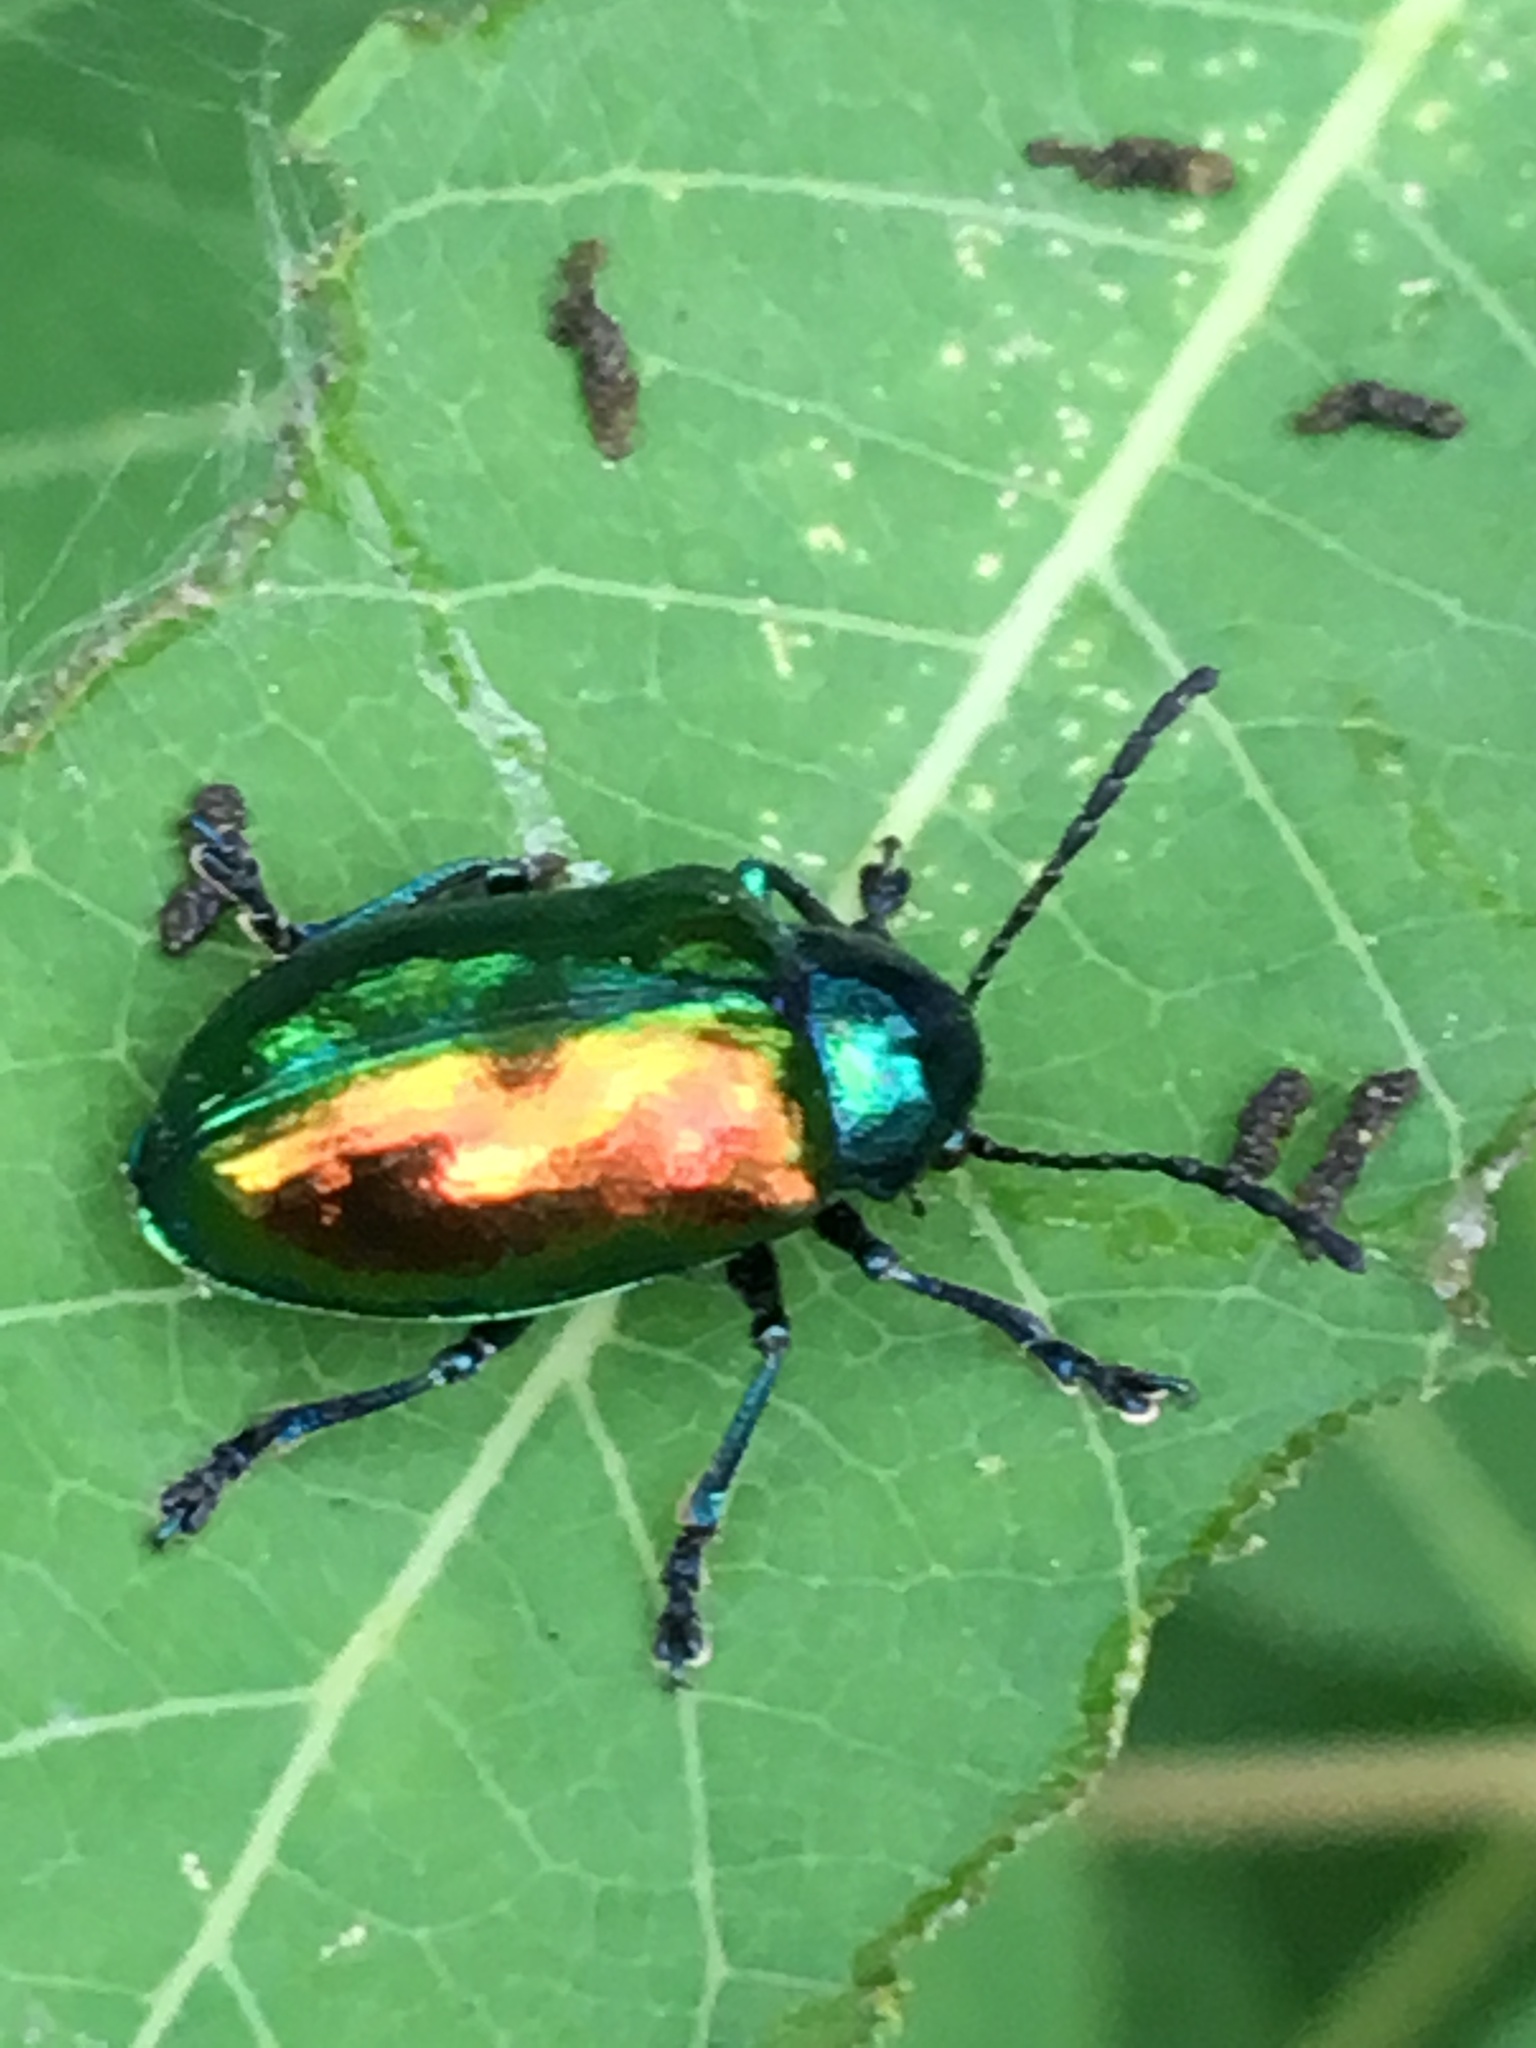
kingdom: Animalia
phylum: Arthropoda
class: Insecta
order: Coleoptera
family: Chrysomelidae
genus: Chrysochus
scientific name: Chrysochus auratus
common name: Dogbane leaf beetle
